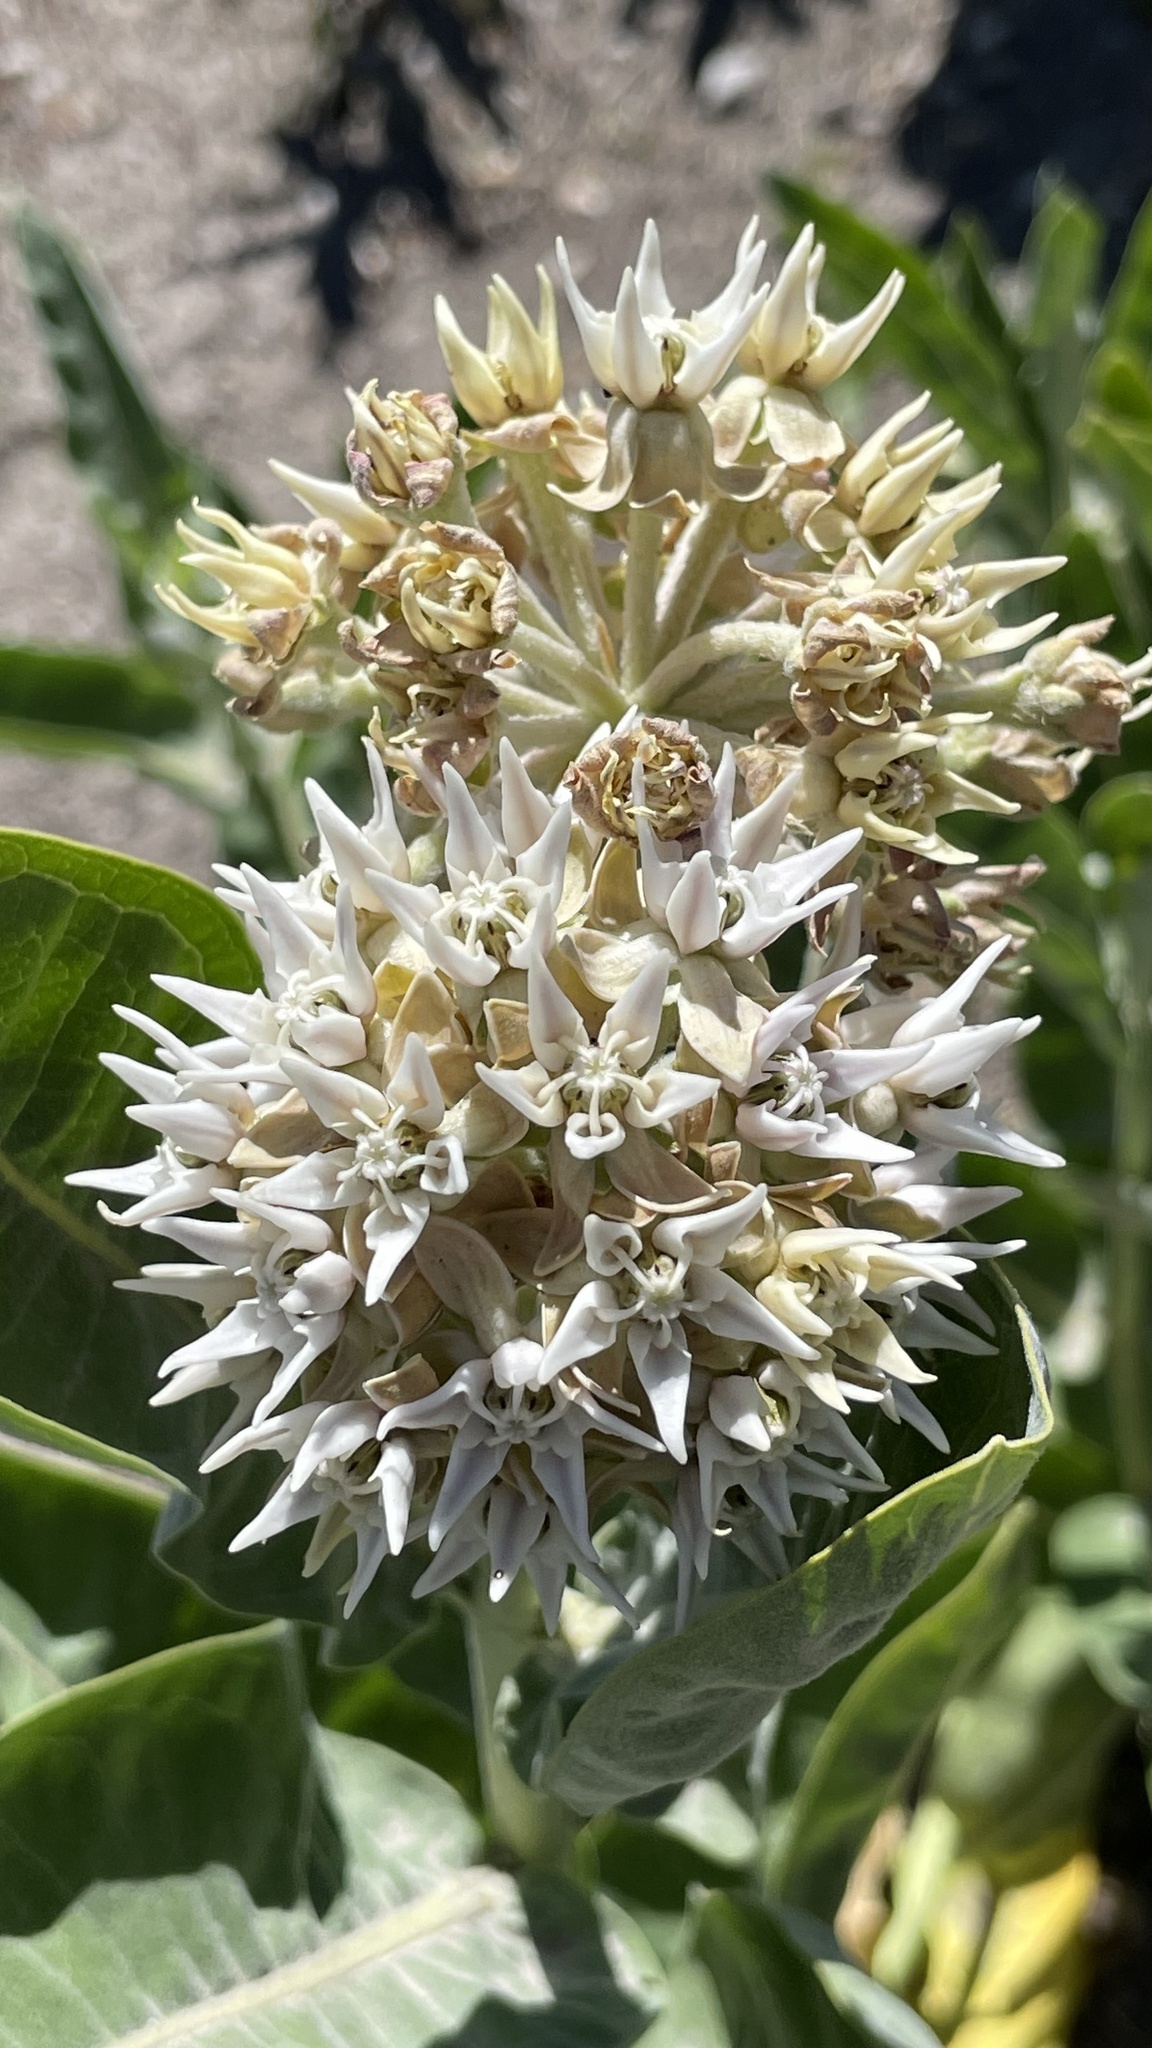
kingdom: Plantae
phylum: Tracheophyta
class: Magnoliopsida
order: Gentianales
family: Apocynaceae
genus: Asclepias
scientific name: Asclepias speciosa
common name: Showy milkweed
